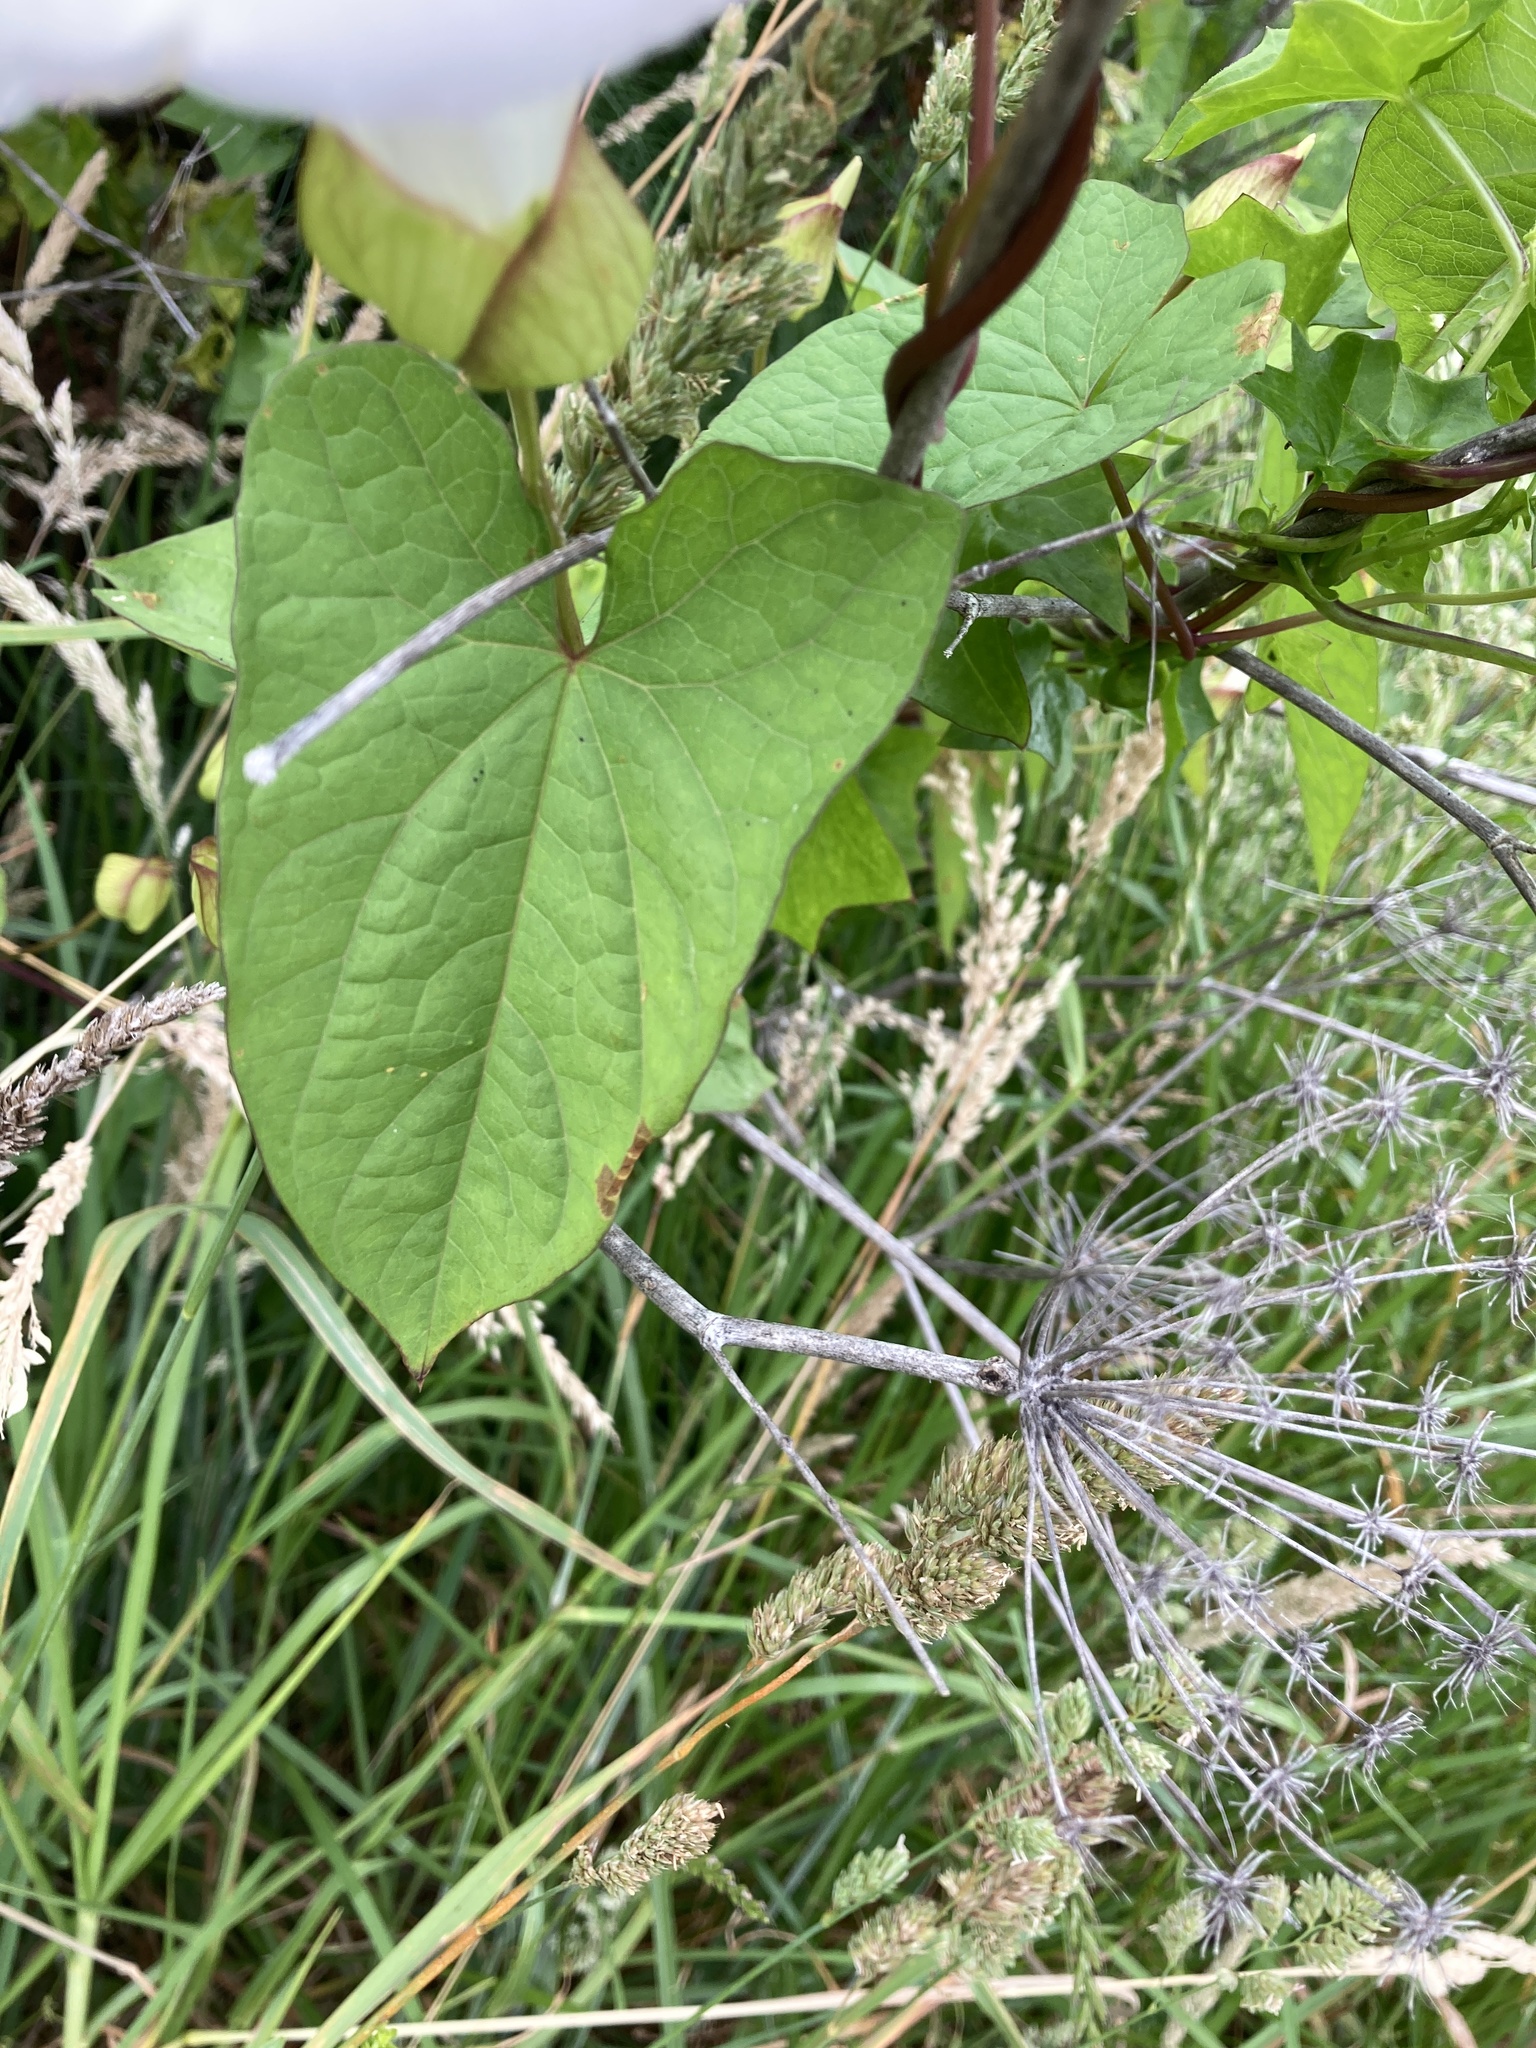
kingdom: Plantae
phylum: Tracheophyta
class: Magnoliopsida
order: Solanales
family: Convolvulaceae
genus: Calystegia
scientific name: Calystegia silvatica
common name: Large bindweed
